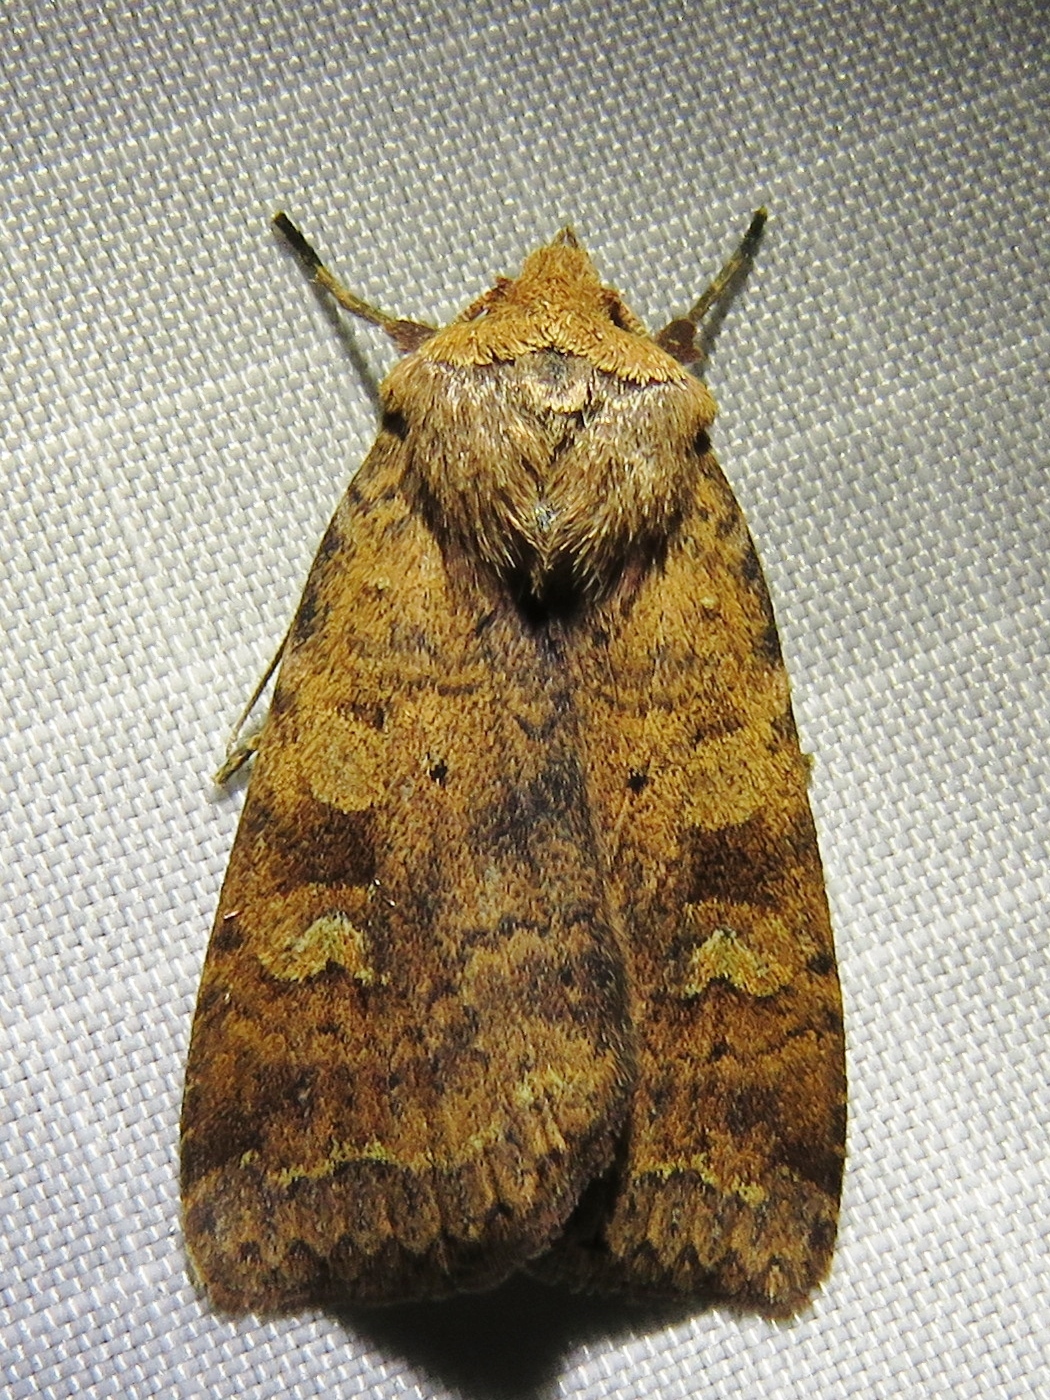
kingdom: Animalia
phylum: Arthropoda
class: Insecta
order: Lepidoptera
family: Noctuidae
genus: Diarsia
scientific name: Diarsia dahlii
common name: Barred chestnut
